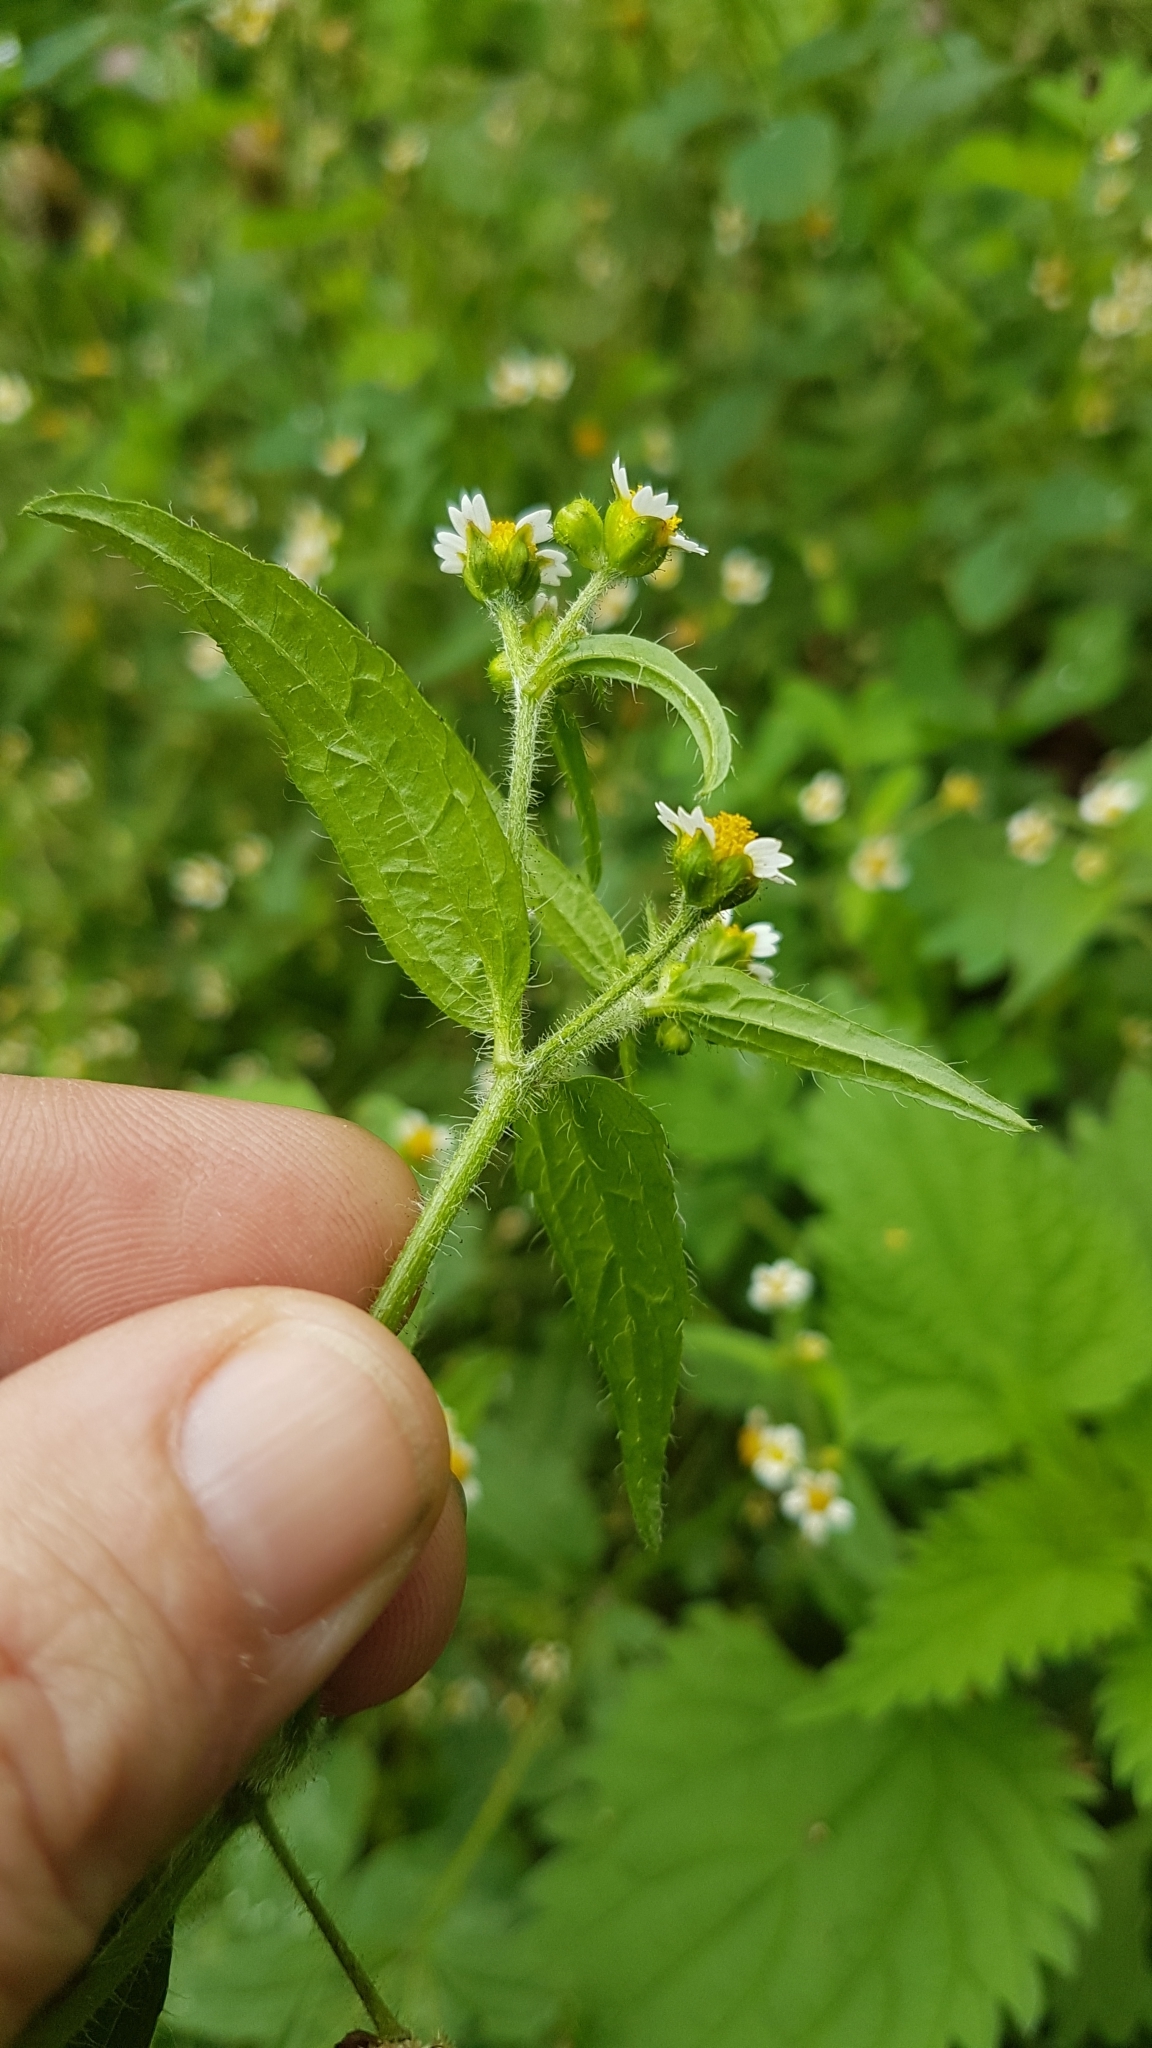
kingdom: Plantae
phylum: Tracheophyta
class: Magnoliopsida
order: Asterales
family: Asteraceae
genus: Galinsoga
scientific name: Galinsoga quadriradiata
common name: Shaggy soldier
